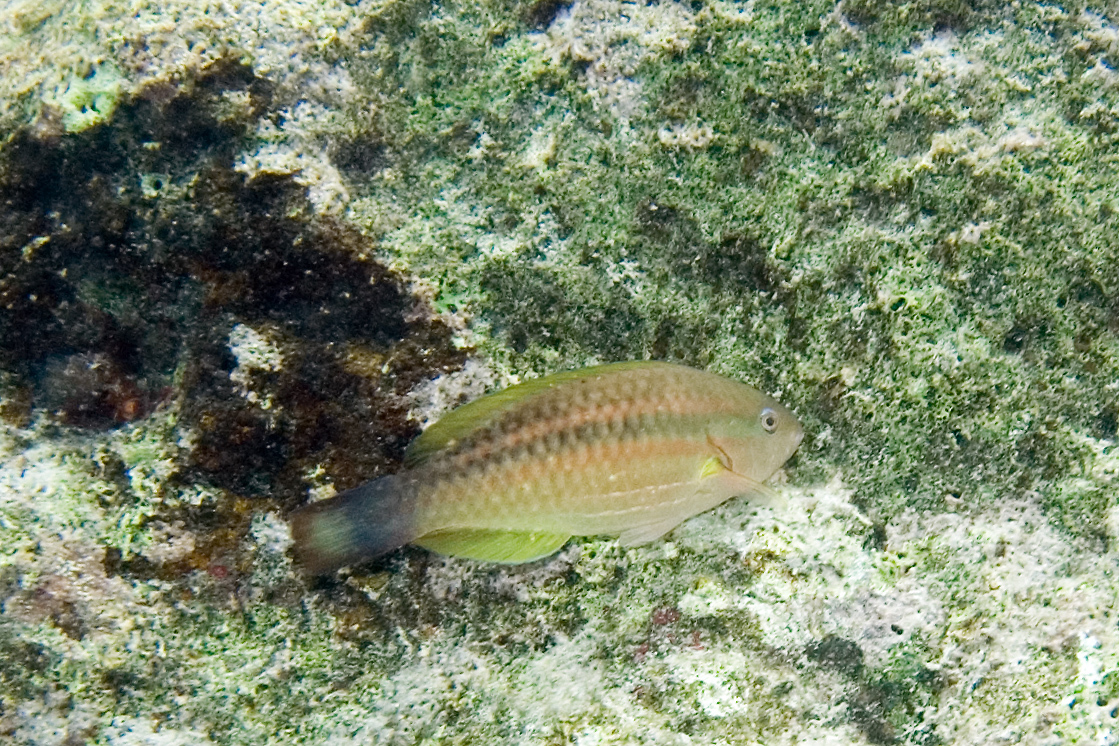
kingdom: Animalia
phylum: Chordata
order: Perciformes
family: Scaridae
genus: Scarus
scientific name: Scarus taeniopterus
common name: Princess parrotfish
